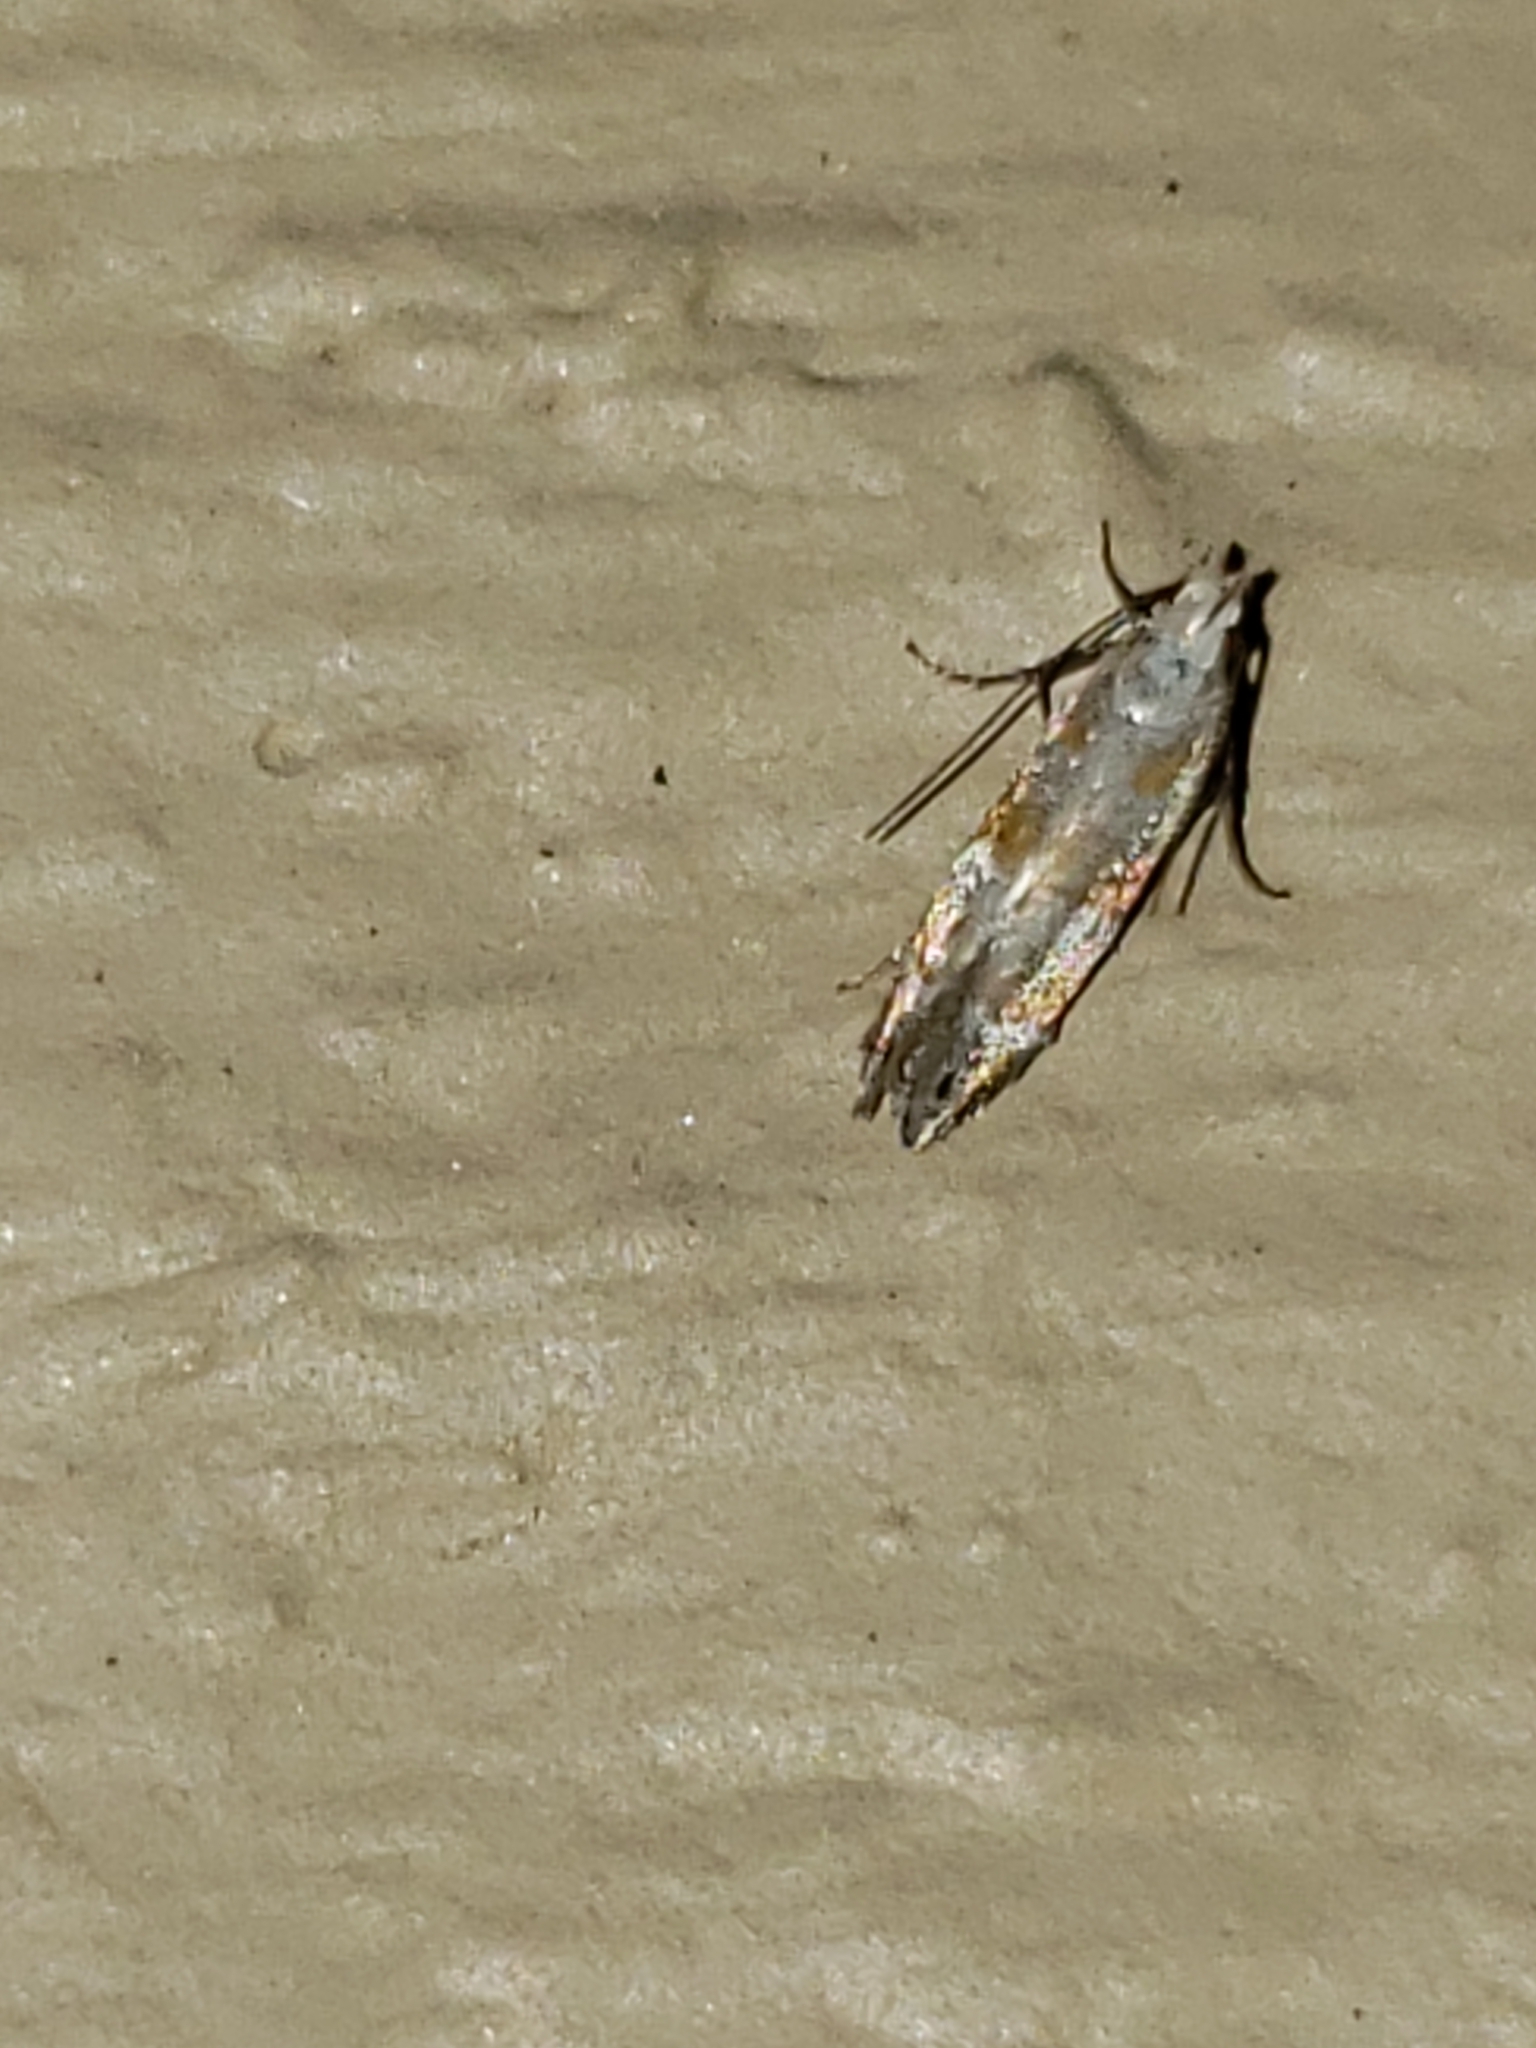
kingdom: Animalia
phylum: Arthropoda
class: Insecta
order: Lepidoptera
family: Gelechiidae
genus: Battaristis
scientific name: Battaristis vittella
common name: Orange stripe-backed moth
